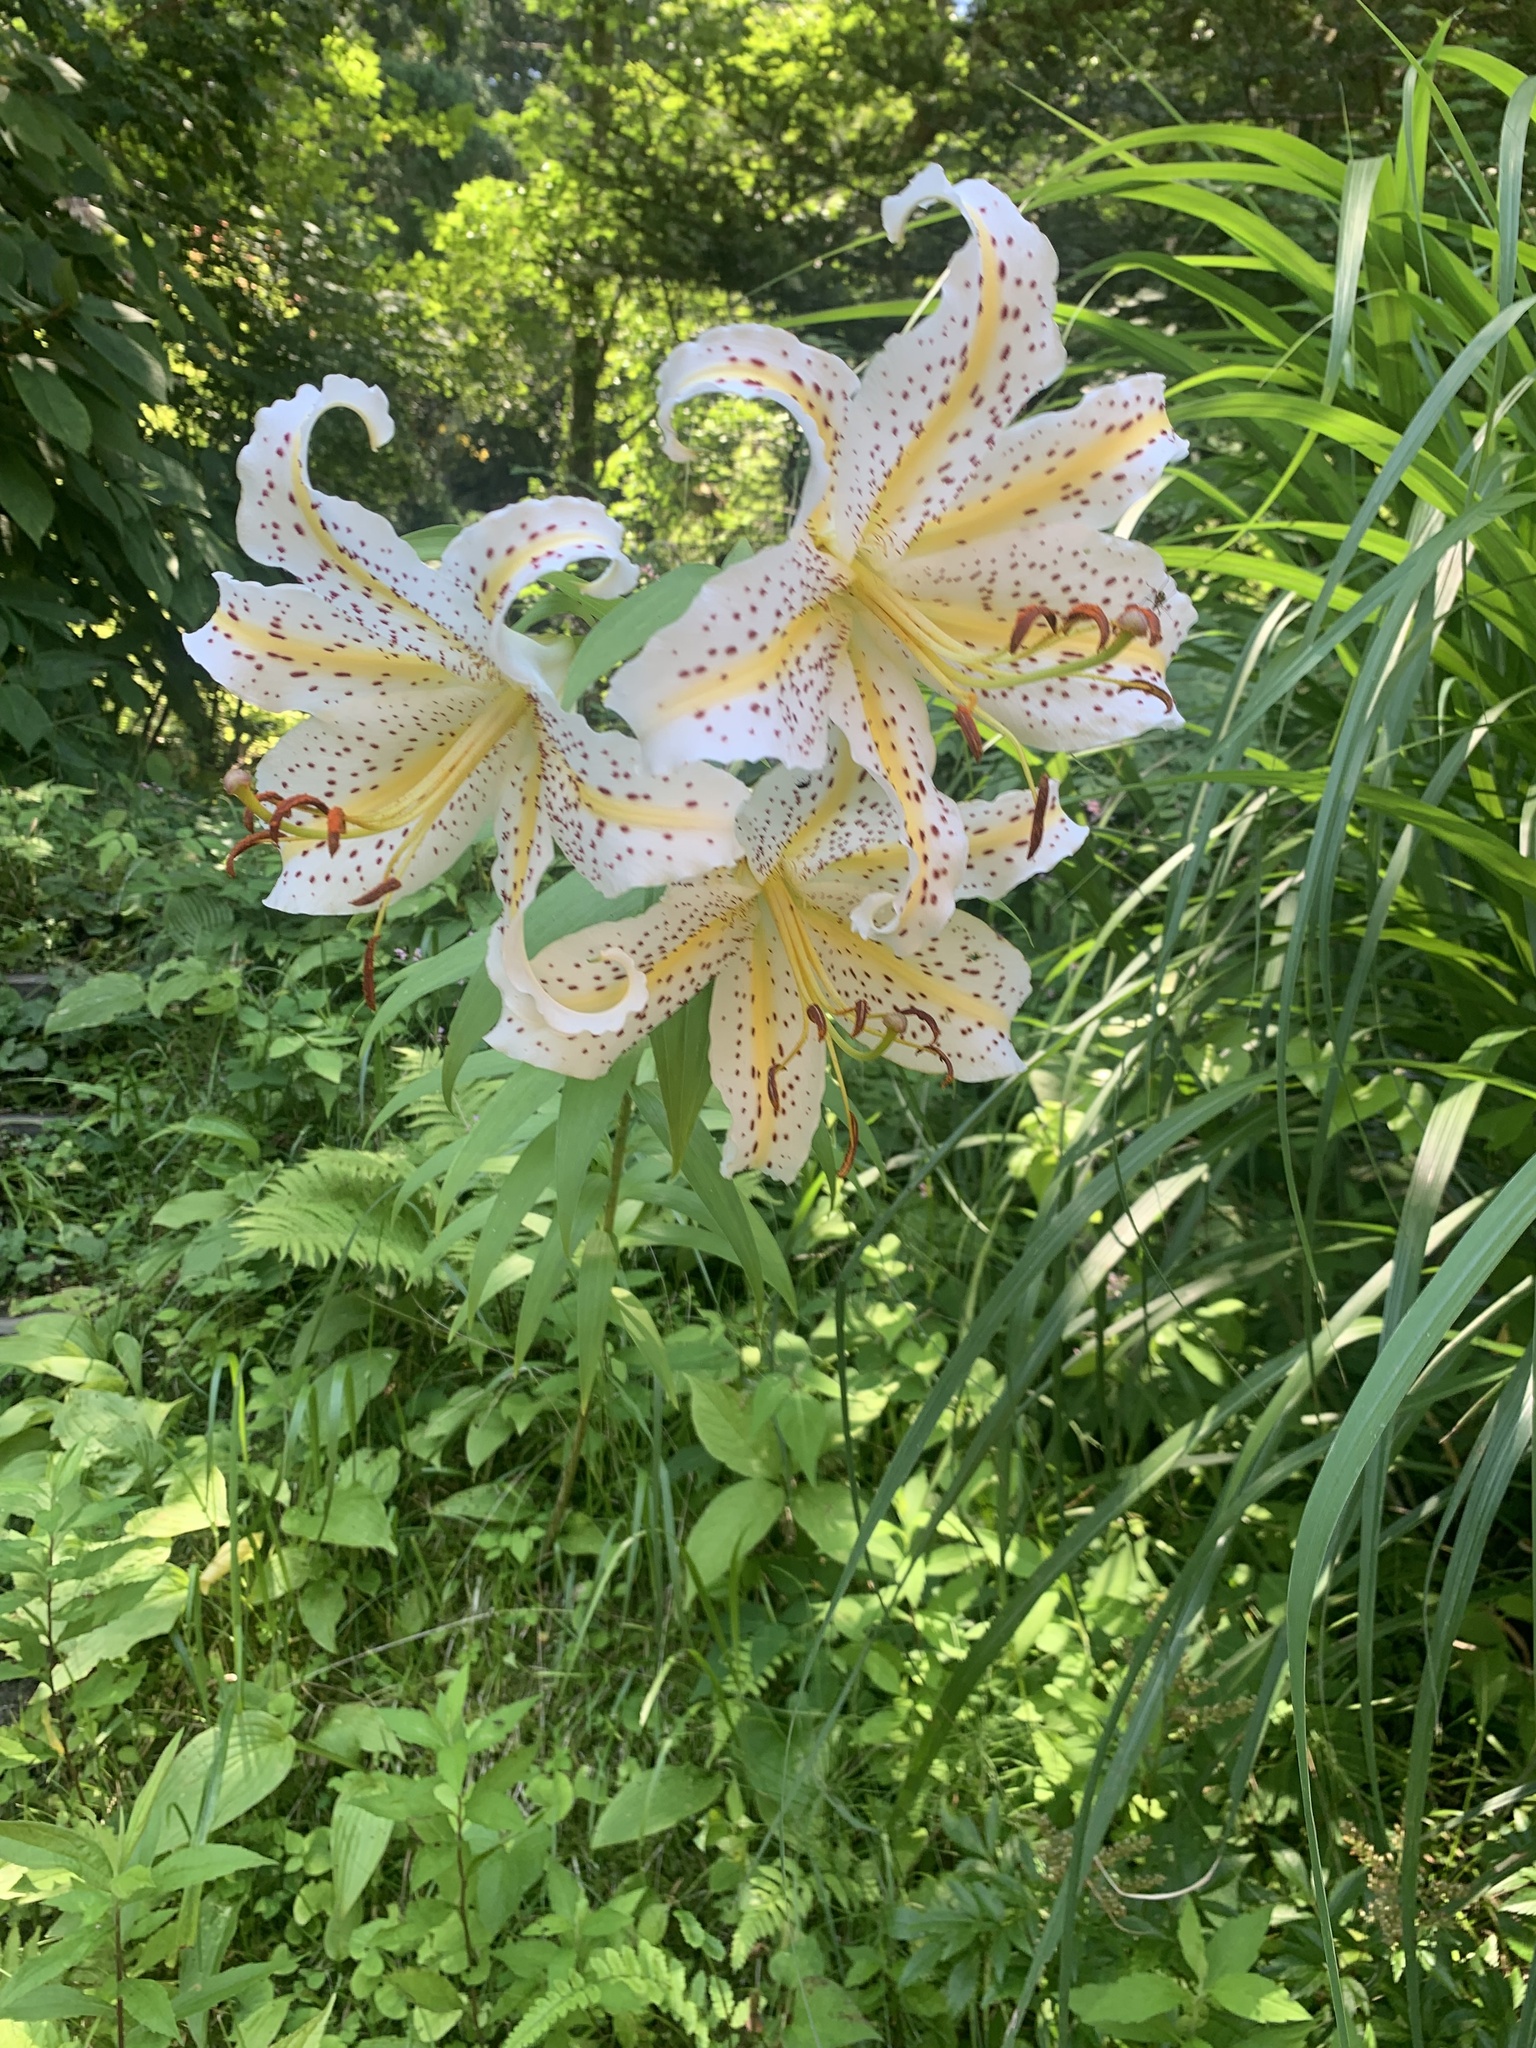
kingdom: Plantae
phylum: Tracheophyta
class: Liliopsida
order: Liliales
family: Liliaceae
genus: Lilium
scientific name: Lilium auratum
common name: Golden-ray lily
